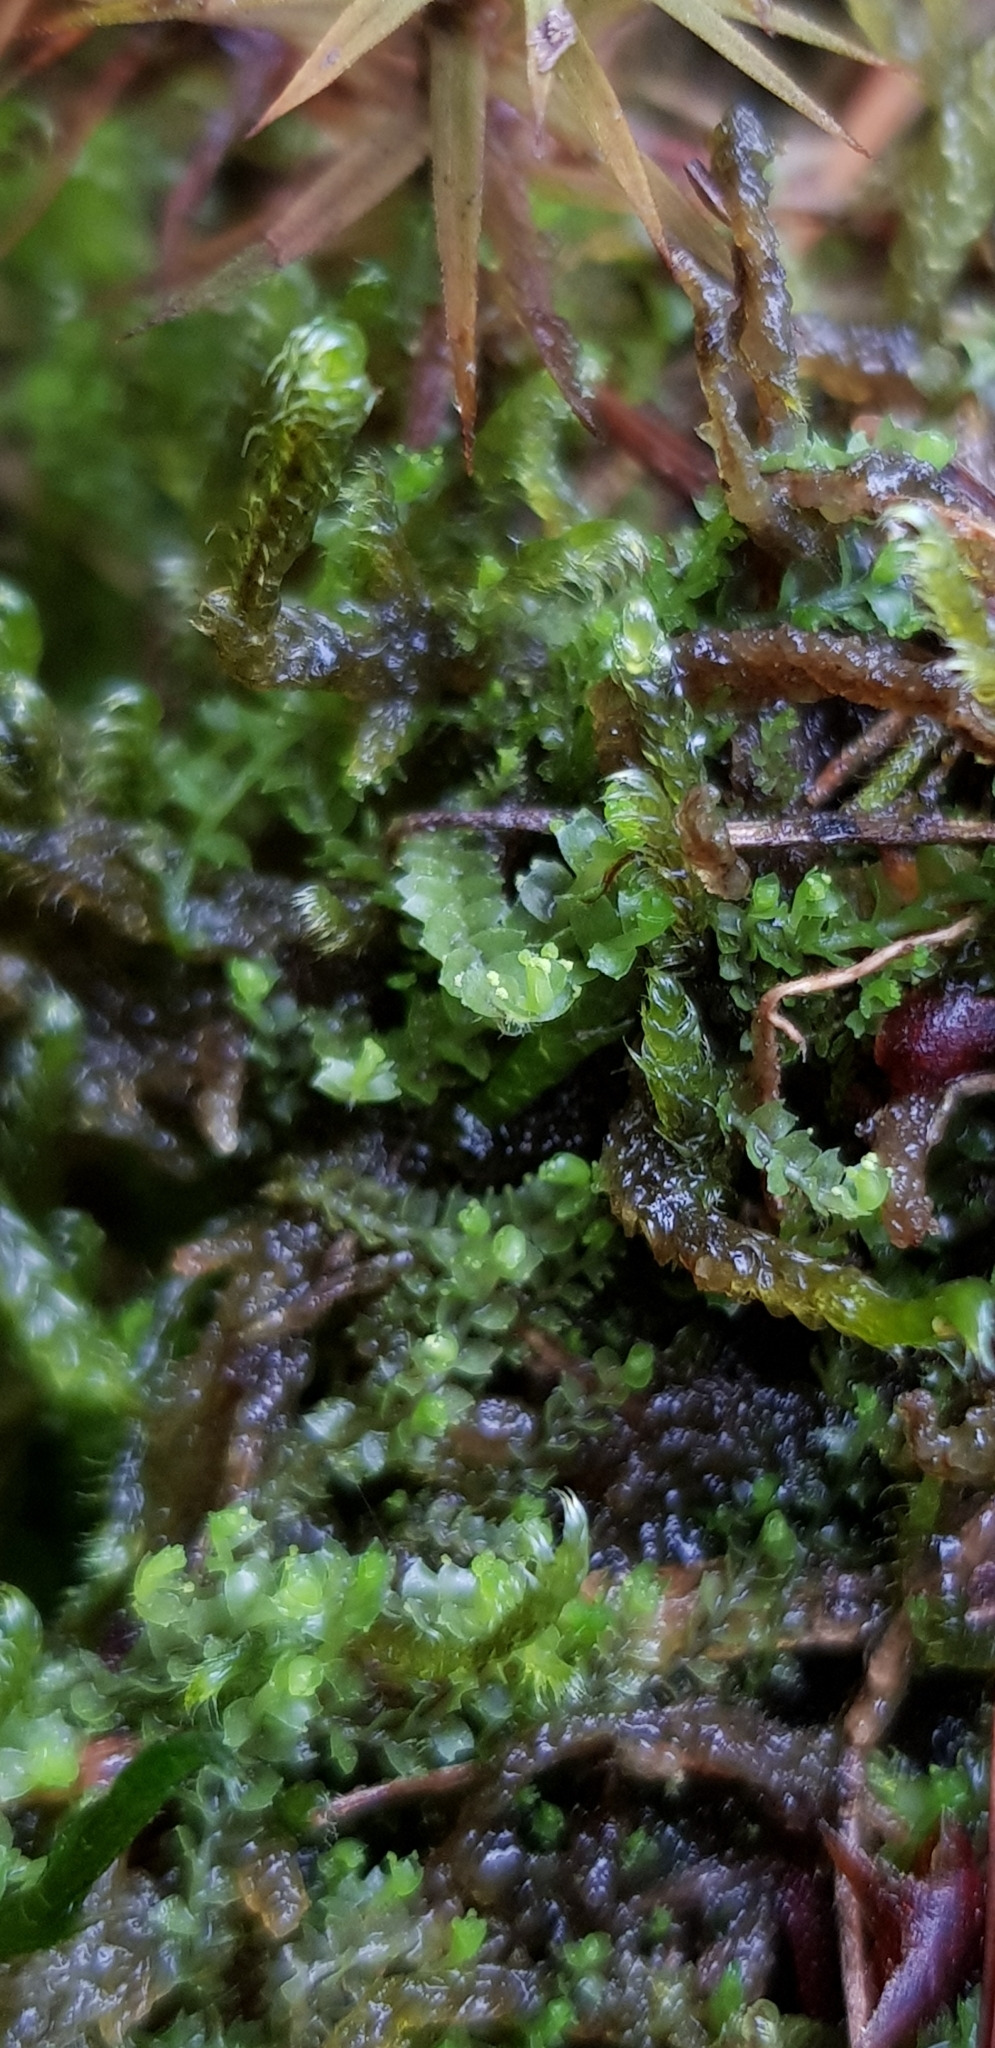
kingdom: Plantae
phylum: Marchantiophyta
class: Jungermanniopsida
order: Jungermanniales
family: Lophoziaceae
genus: Lophozia
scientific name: Lophozia ventricosa
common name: Tumid notchwort
